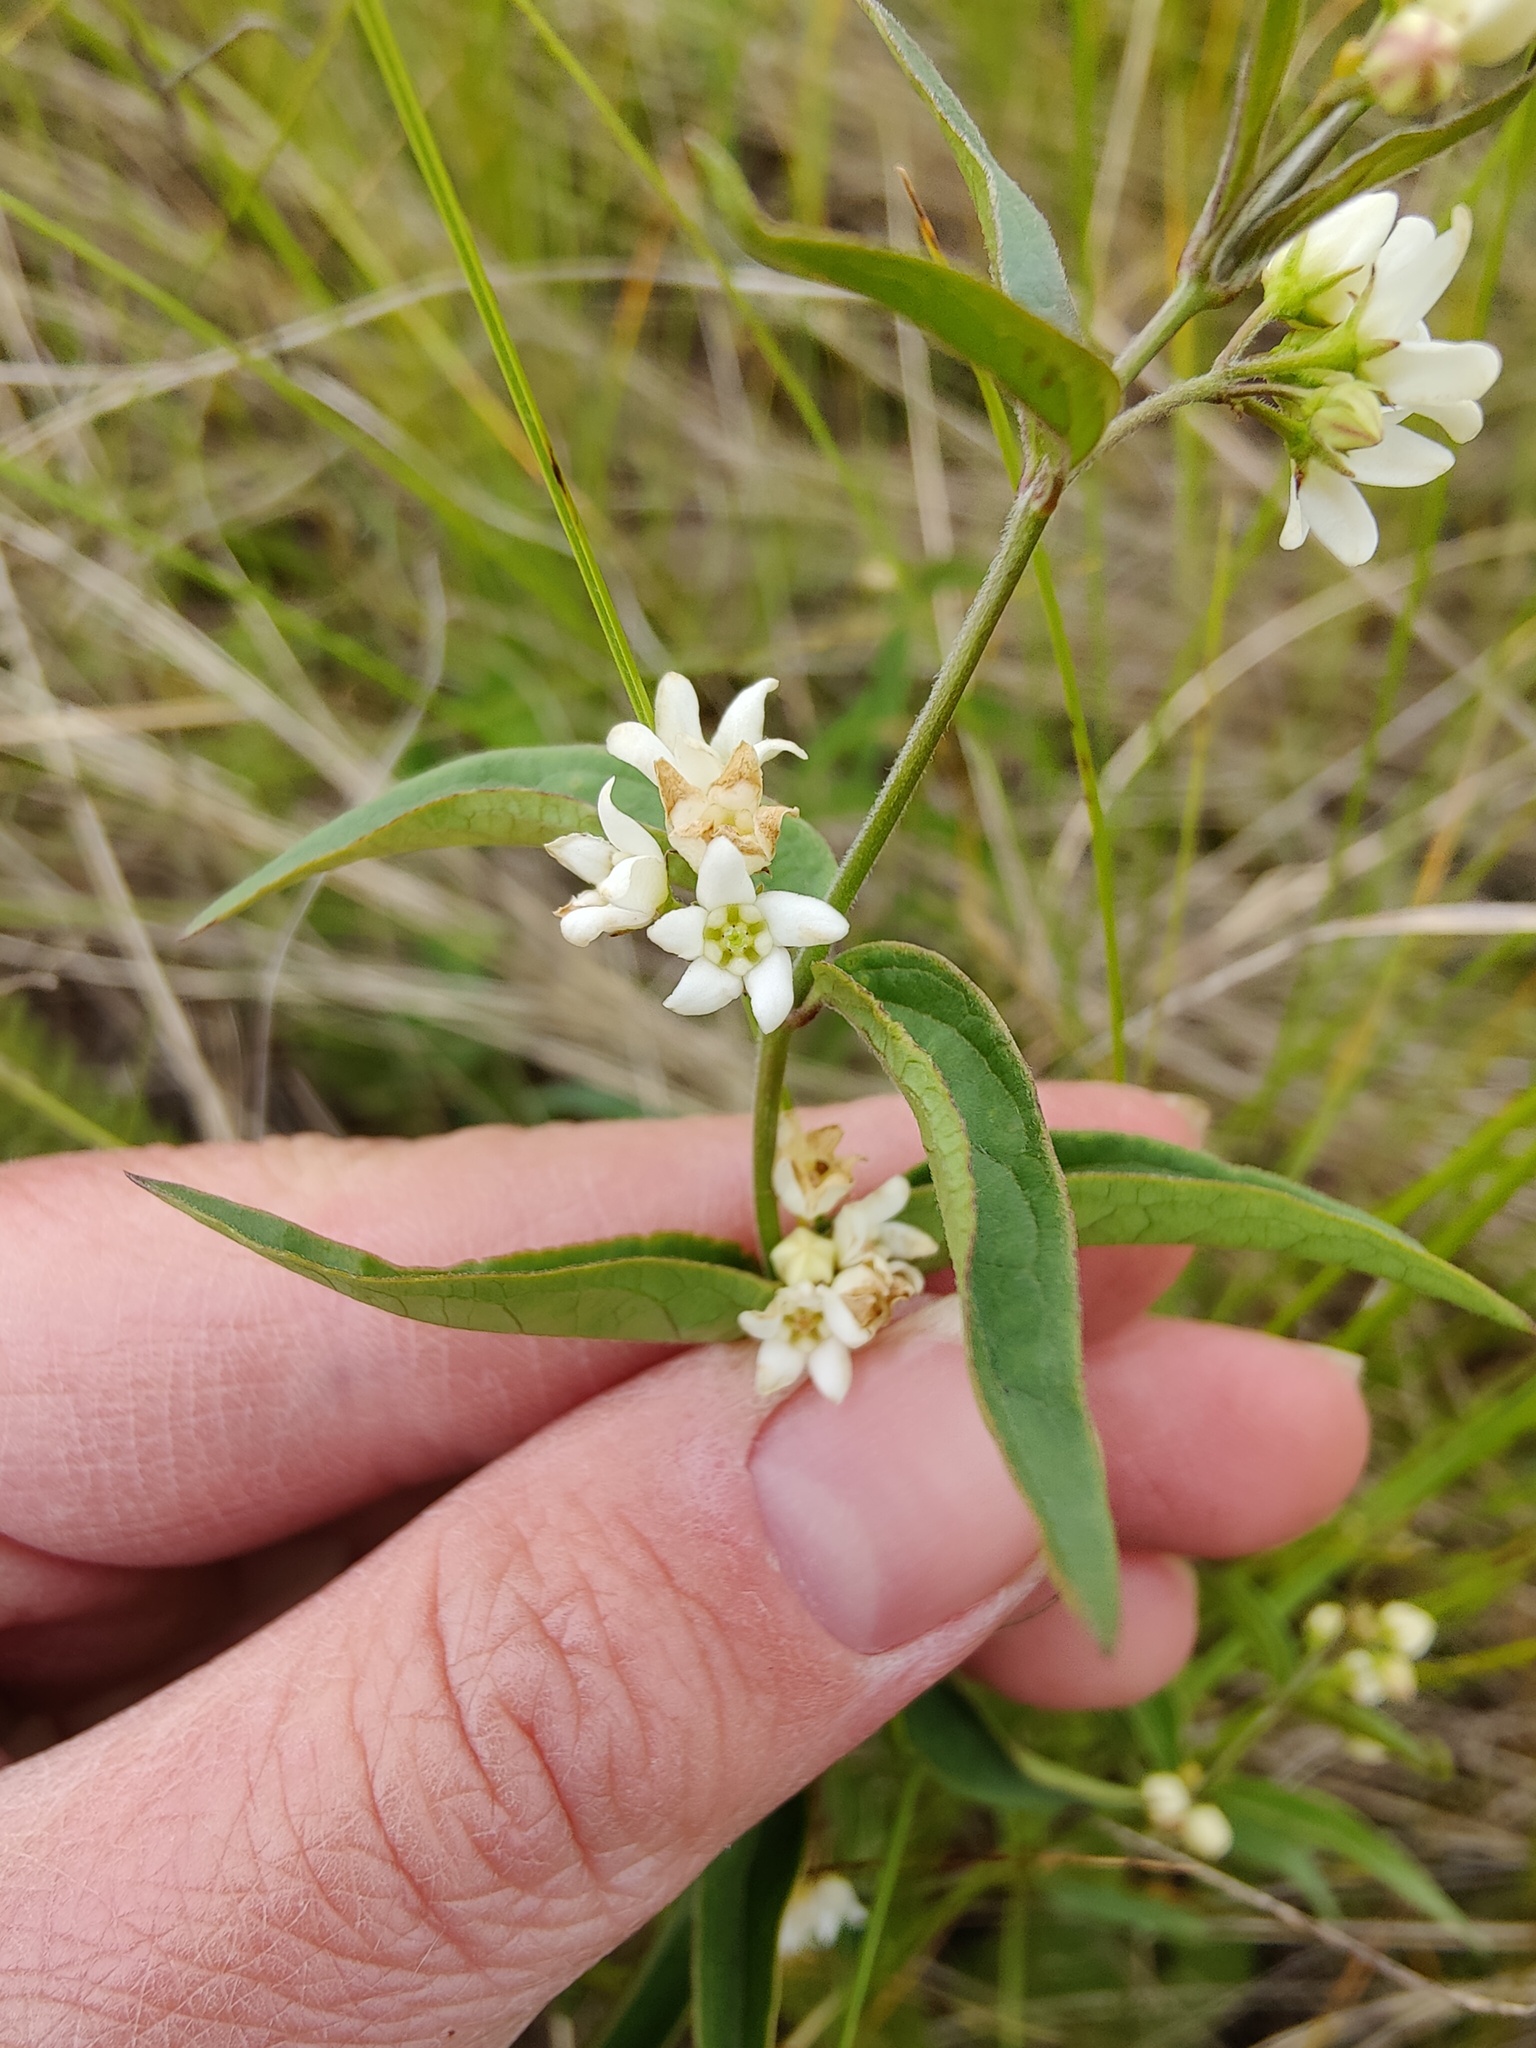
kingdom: Plantae
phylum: Tracheophyta
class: Magnoliopsida
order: Gentianales
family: Apocynaceae
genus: Vincetoxicum
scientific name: Vincetoxicum hirundinaria
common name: White swallowwort
